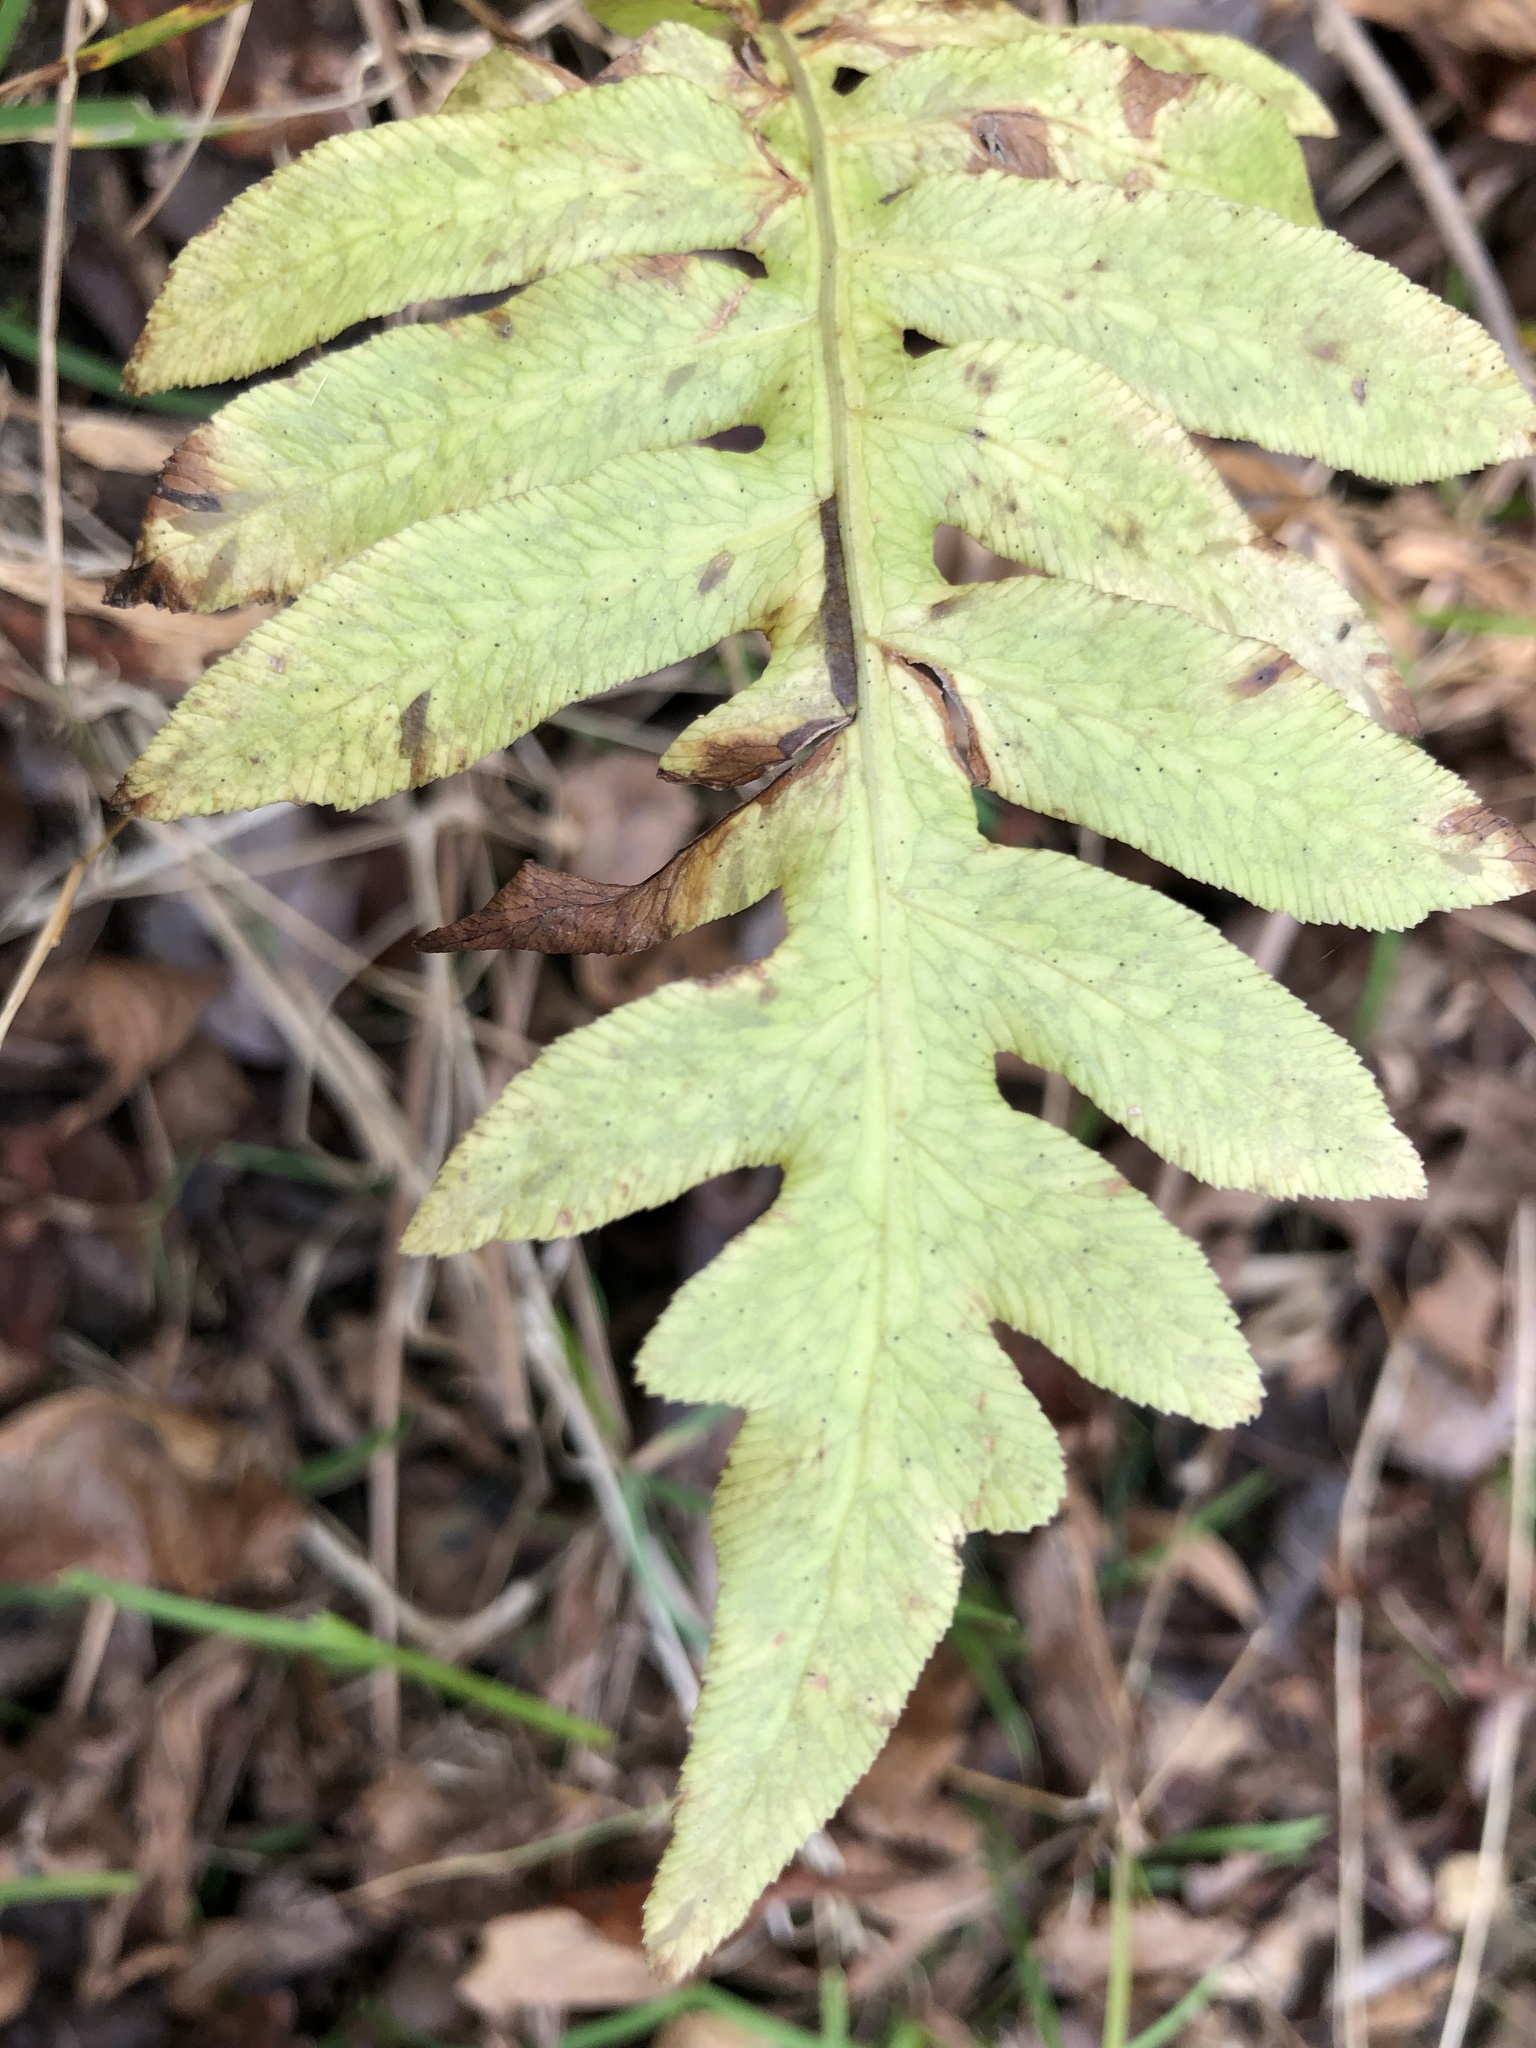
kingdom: Plantae
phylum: Tracheophyta
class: Polypodiopsida
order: Polypodiales
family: Blechnaceae
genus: Lorinseria
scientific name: Lorinseria areolata
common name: Dwarf chain fern
